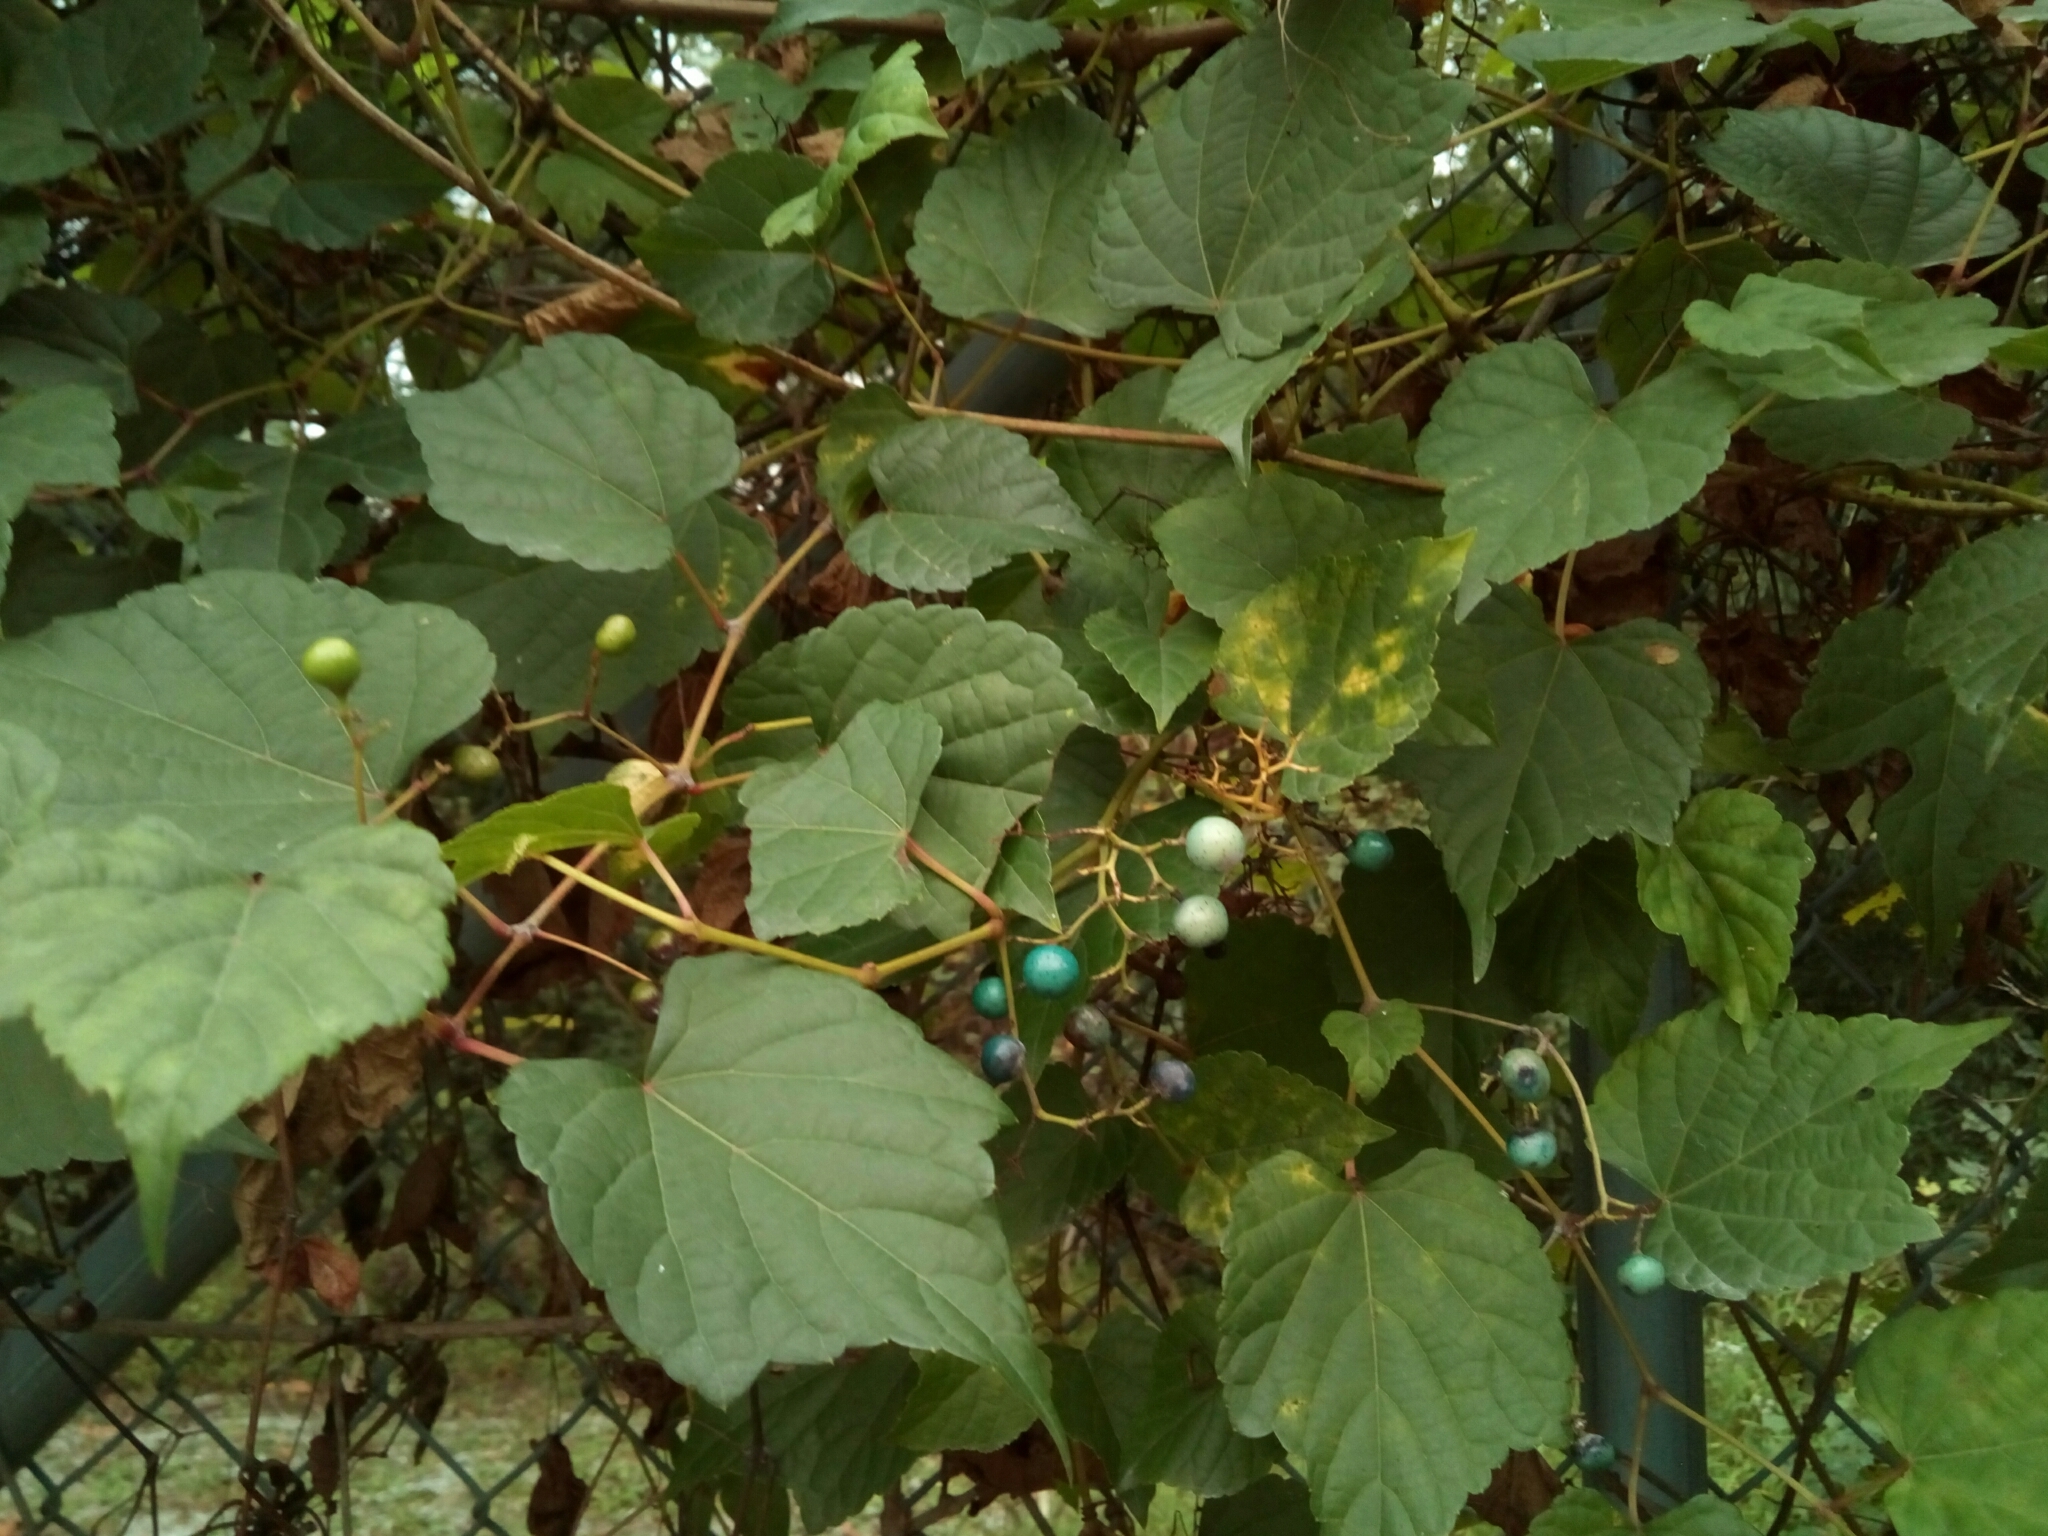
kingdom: Plantae
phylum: Tracheophyta
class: Magnoliopsida
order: Vitales
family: Vitaceae
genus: Ampelopsis
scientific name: Ampelopsis glandulosa
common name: Amur peppervine
